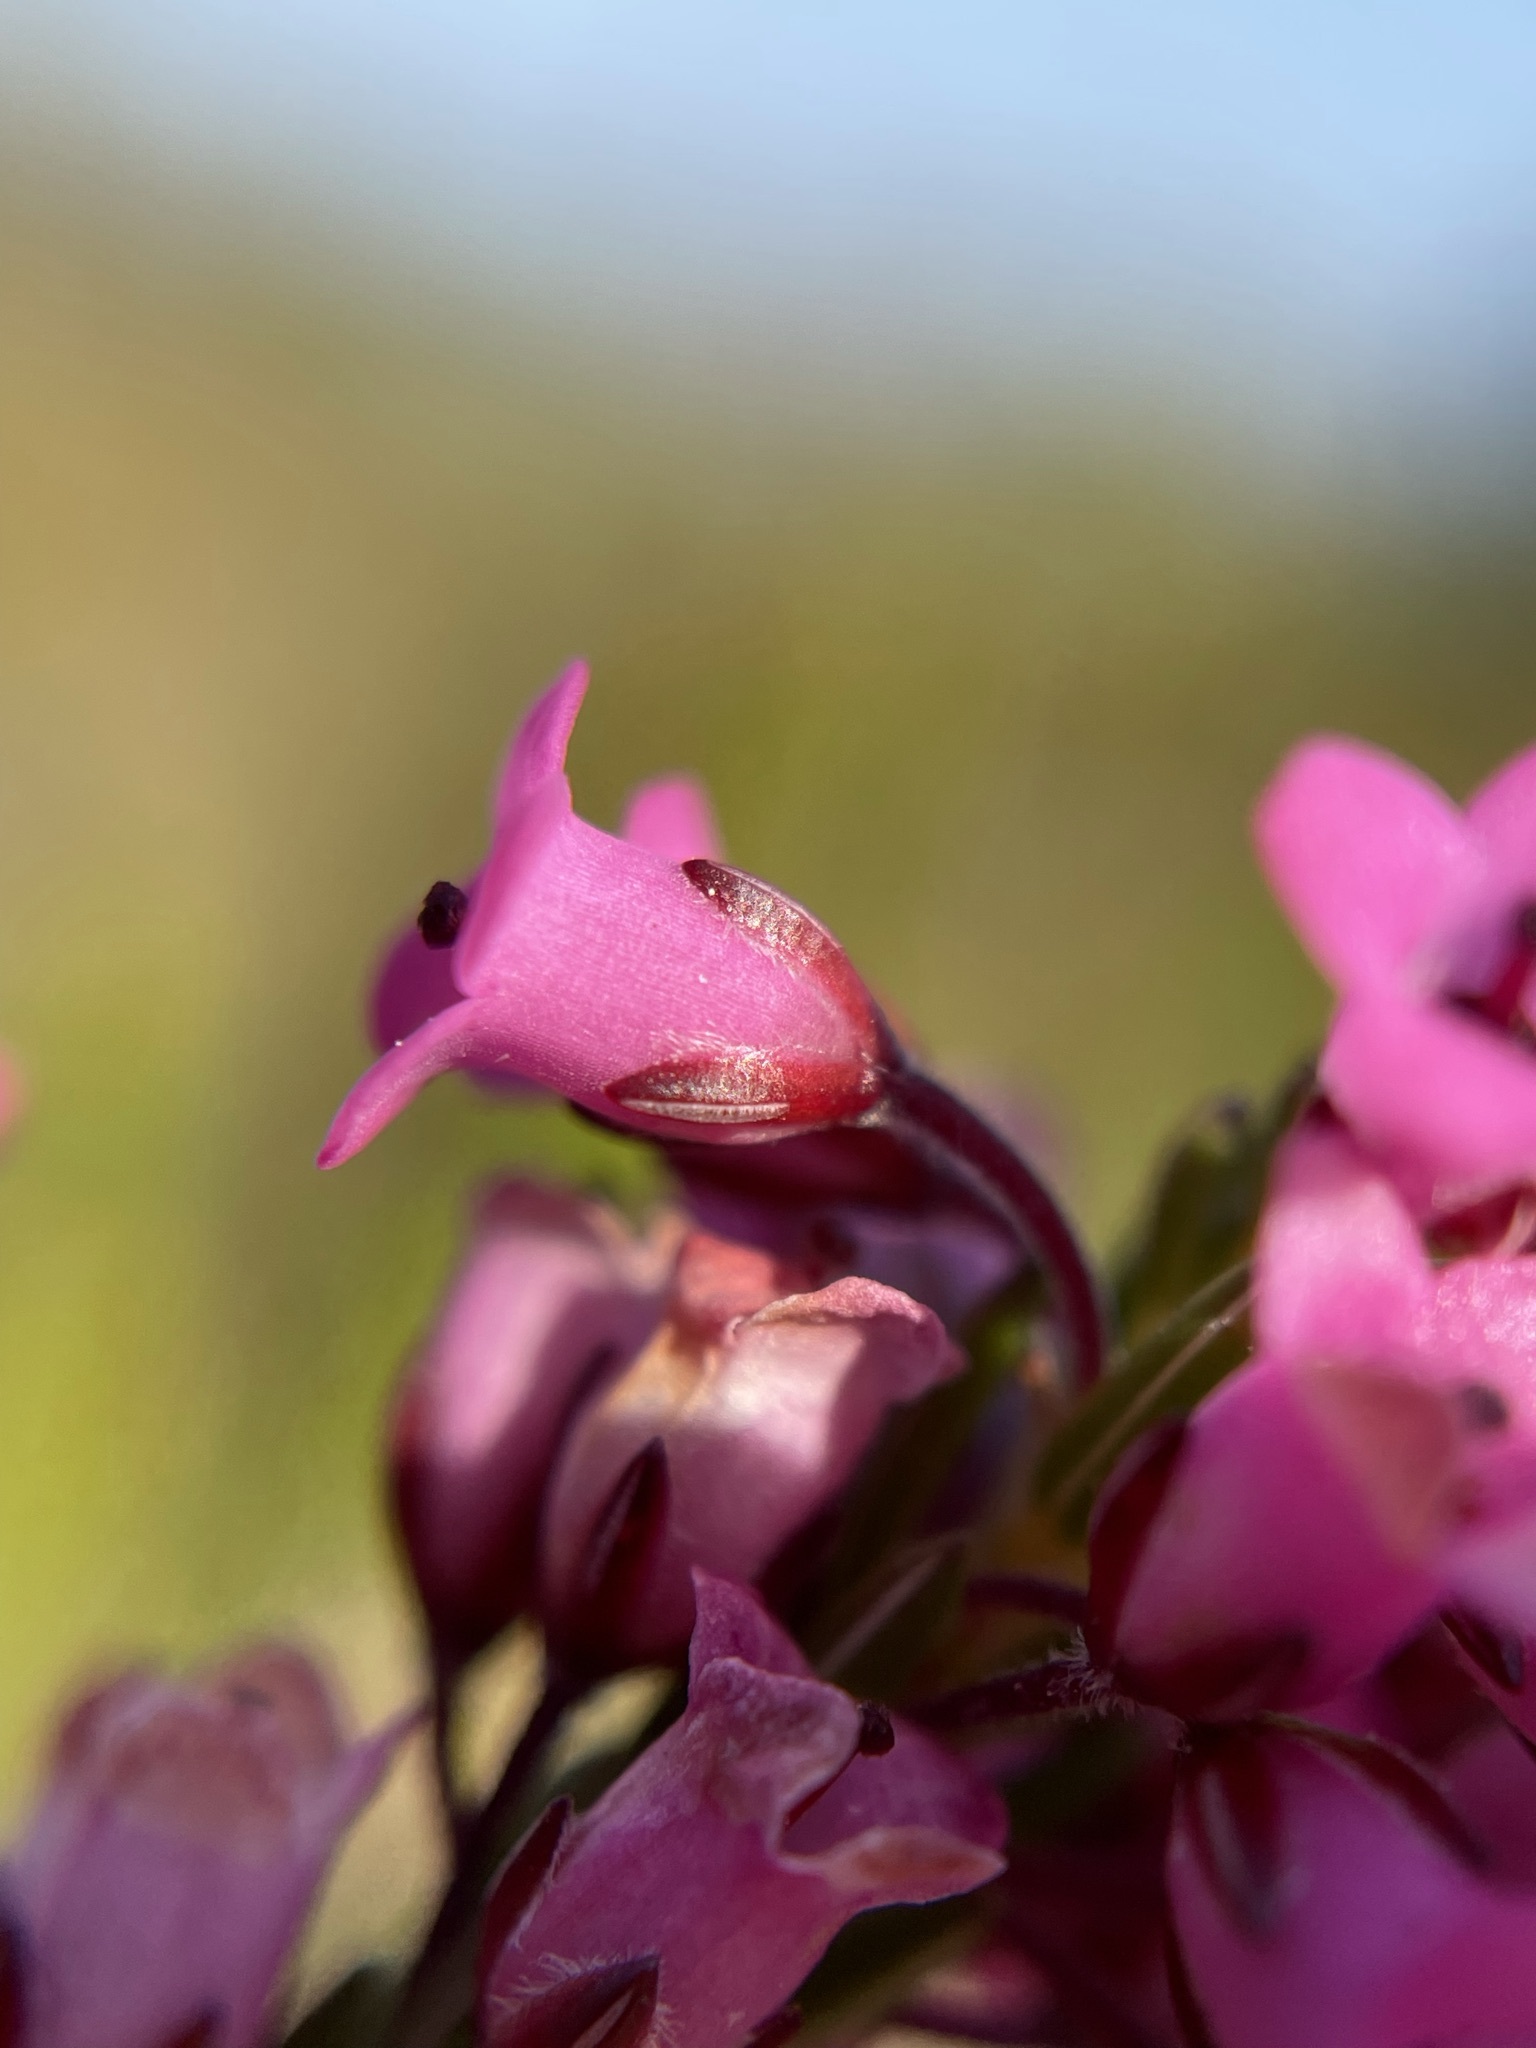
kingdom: Plantae
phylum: Tracheophyta
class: Magnoliopsida
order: Ericales
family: Ericaceae
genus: Erica
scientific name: Erica pulchella
